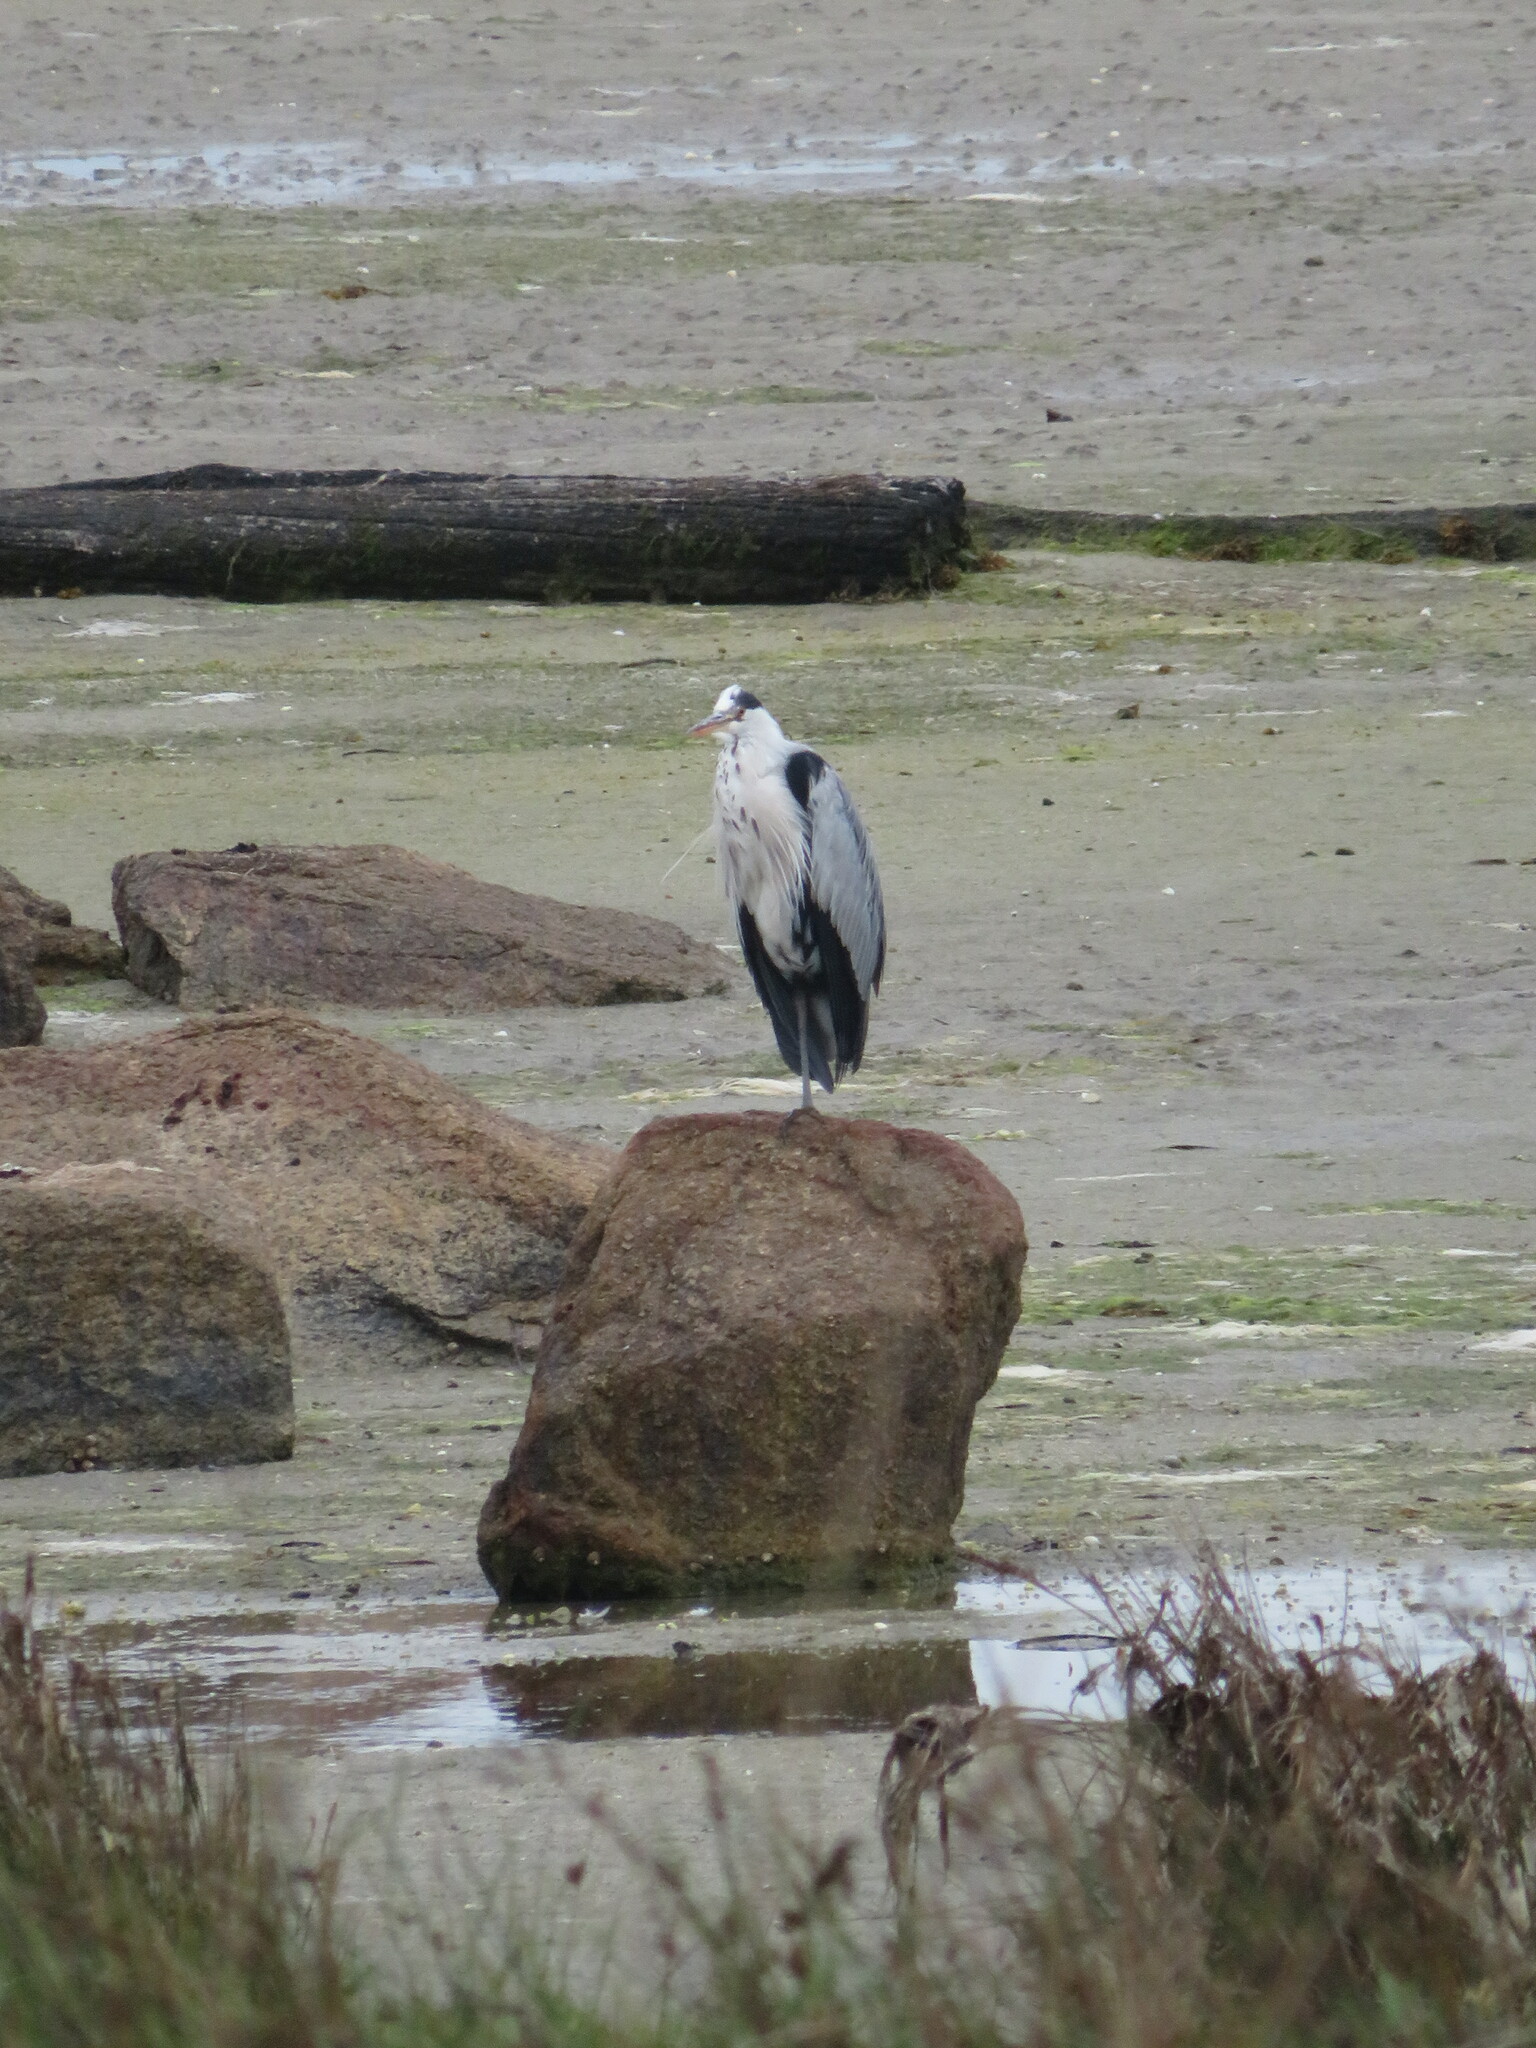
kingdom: Animalia
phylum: Chordata
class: Aves
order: Pelecaniformes
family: Ardeidae
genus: Ardea
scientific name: Ardea cinerea
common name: Grey heron
